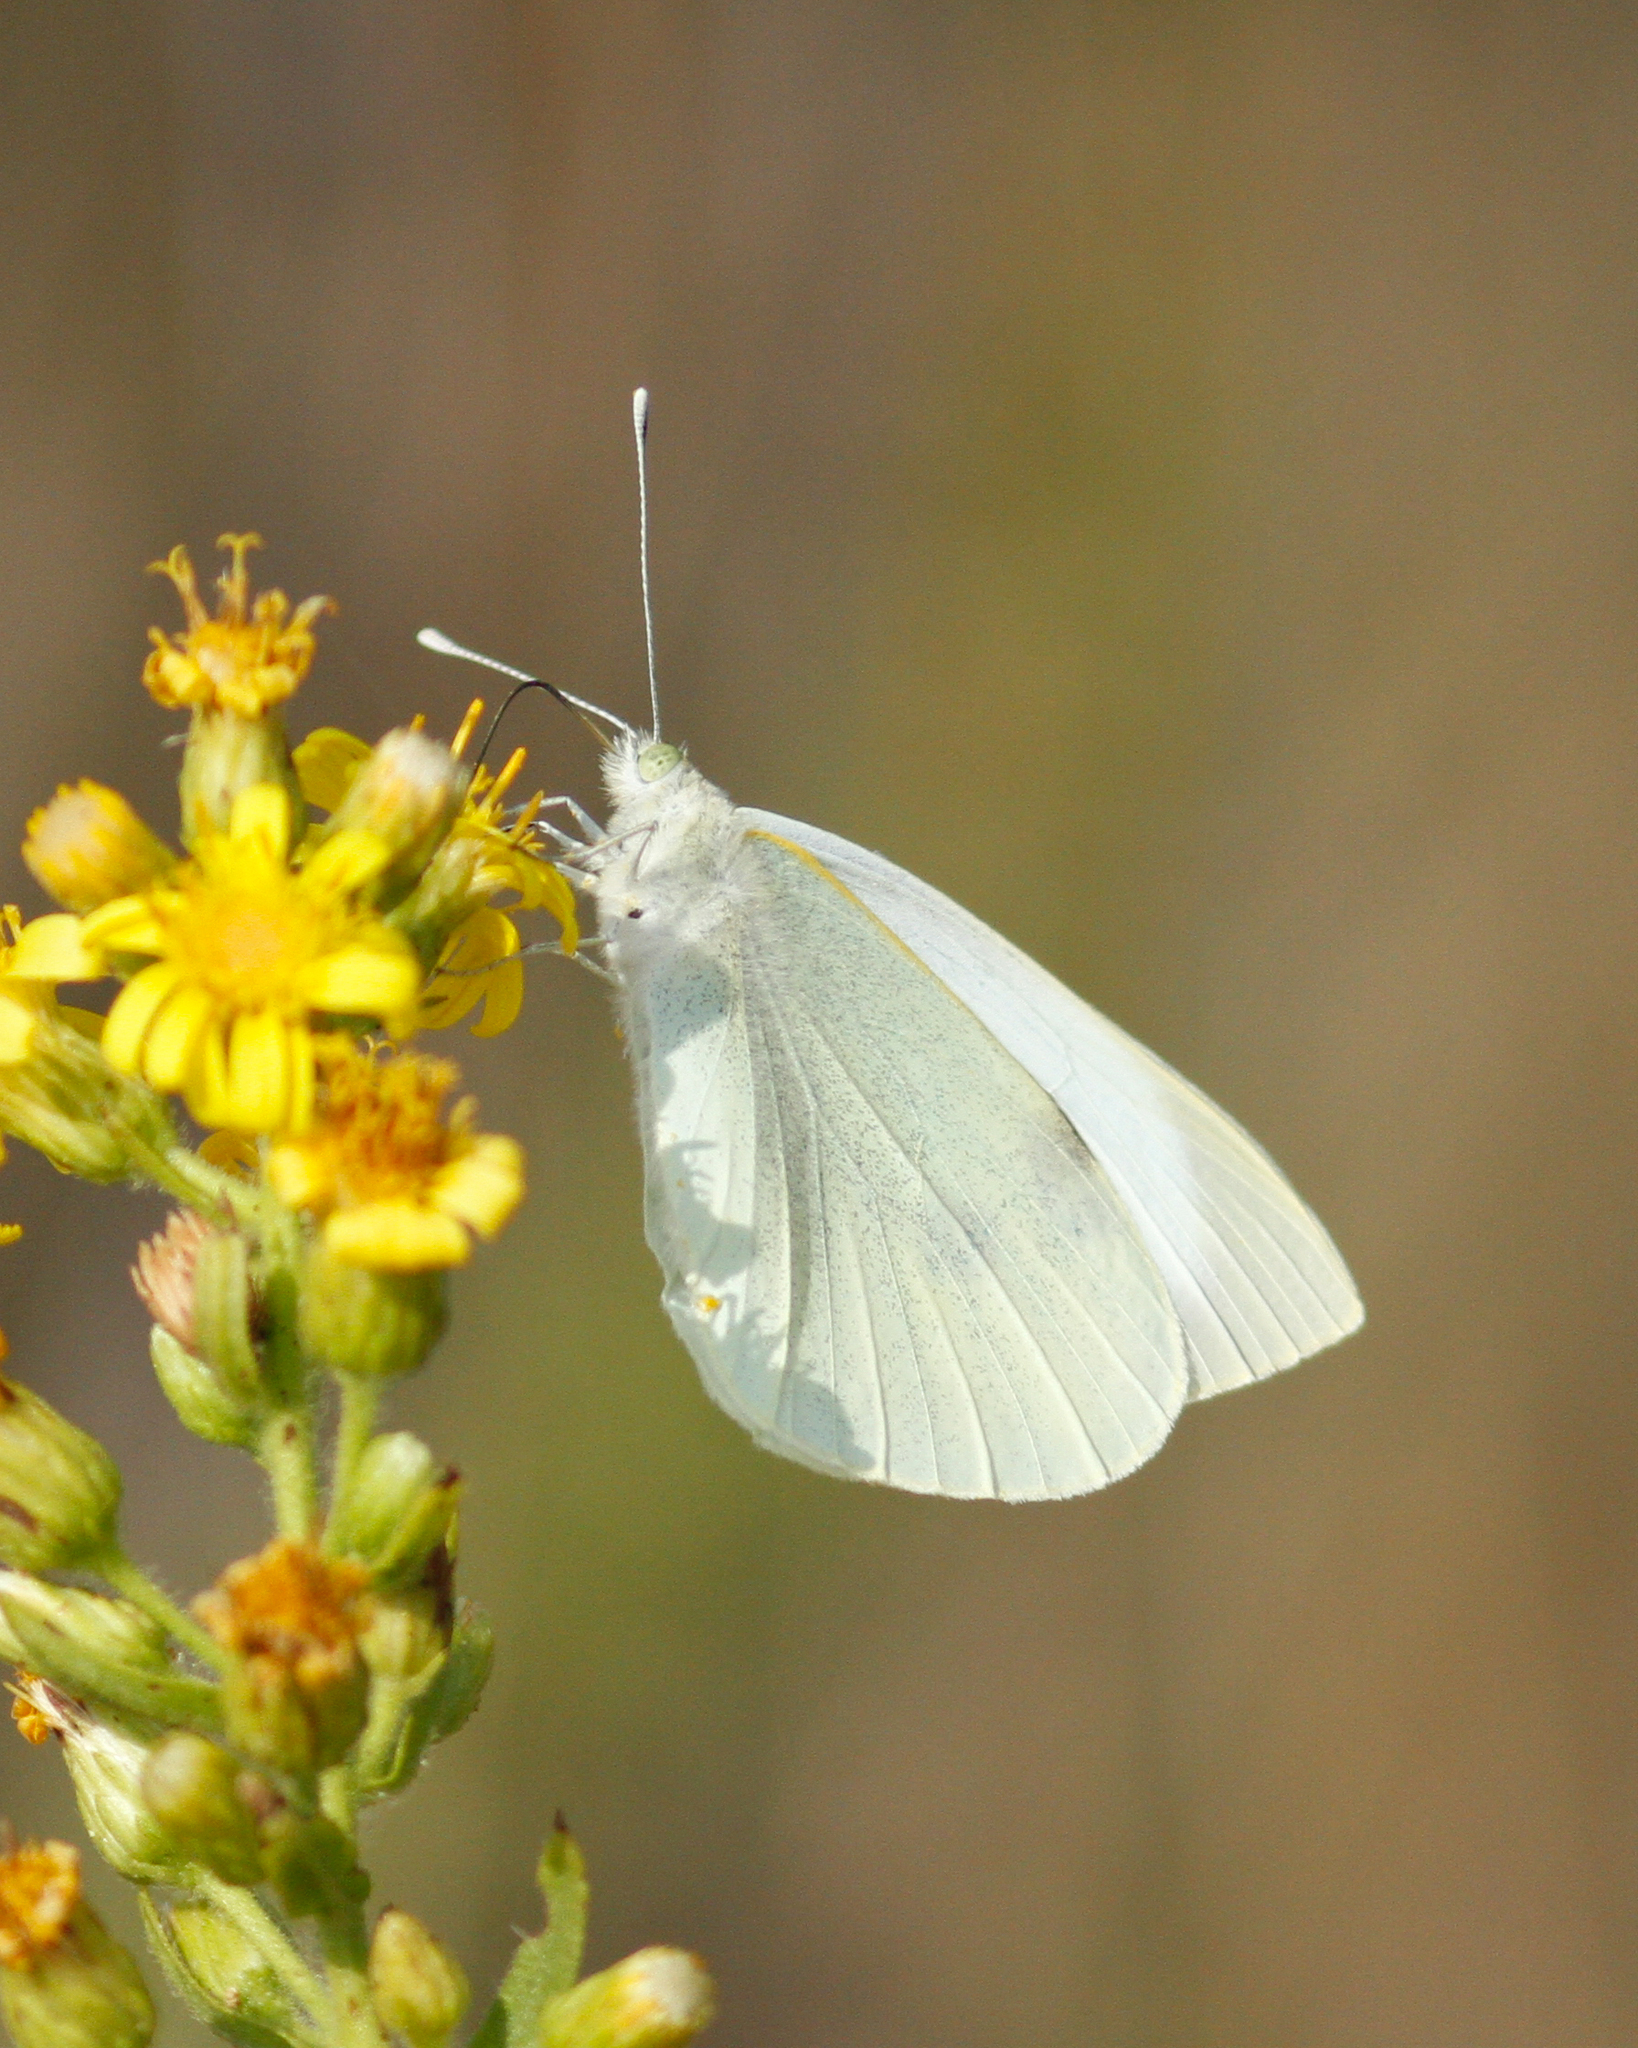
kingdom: Animalia
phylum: Arthropoda
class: Insecta
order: Lepidoptera
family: Pieridae
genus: Pieris
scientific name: Pieris brassicae
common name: Large white
